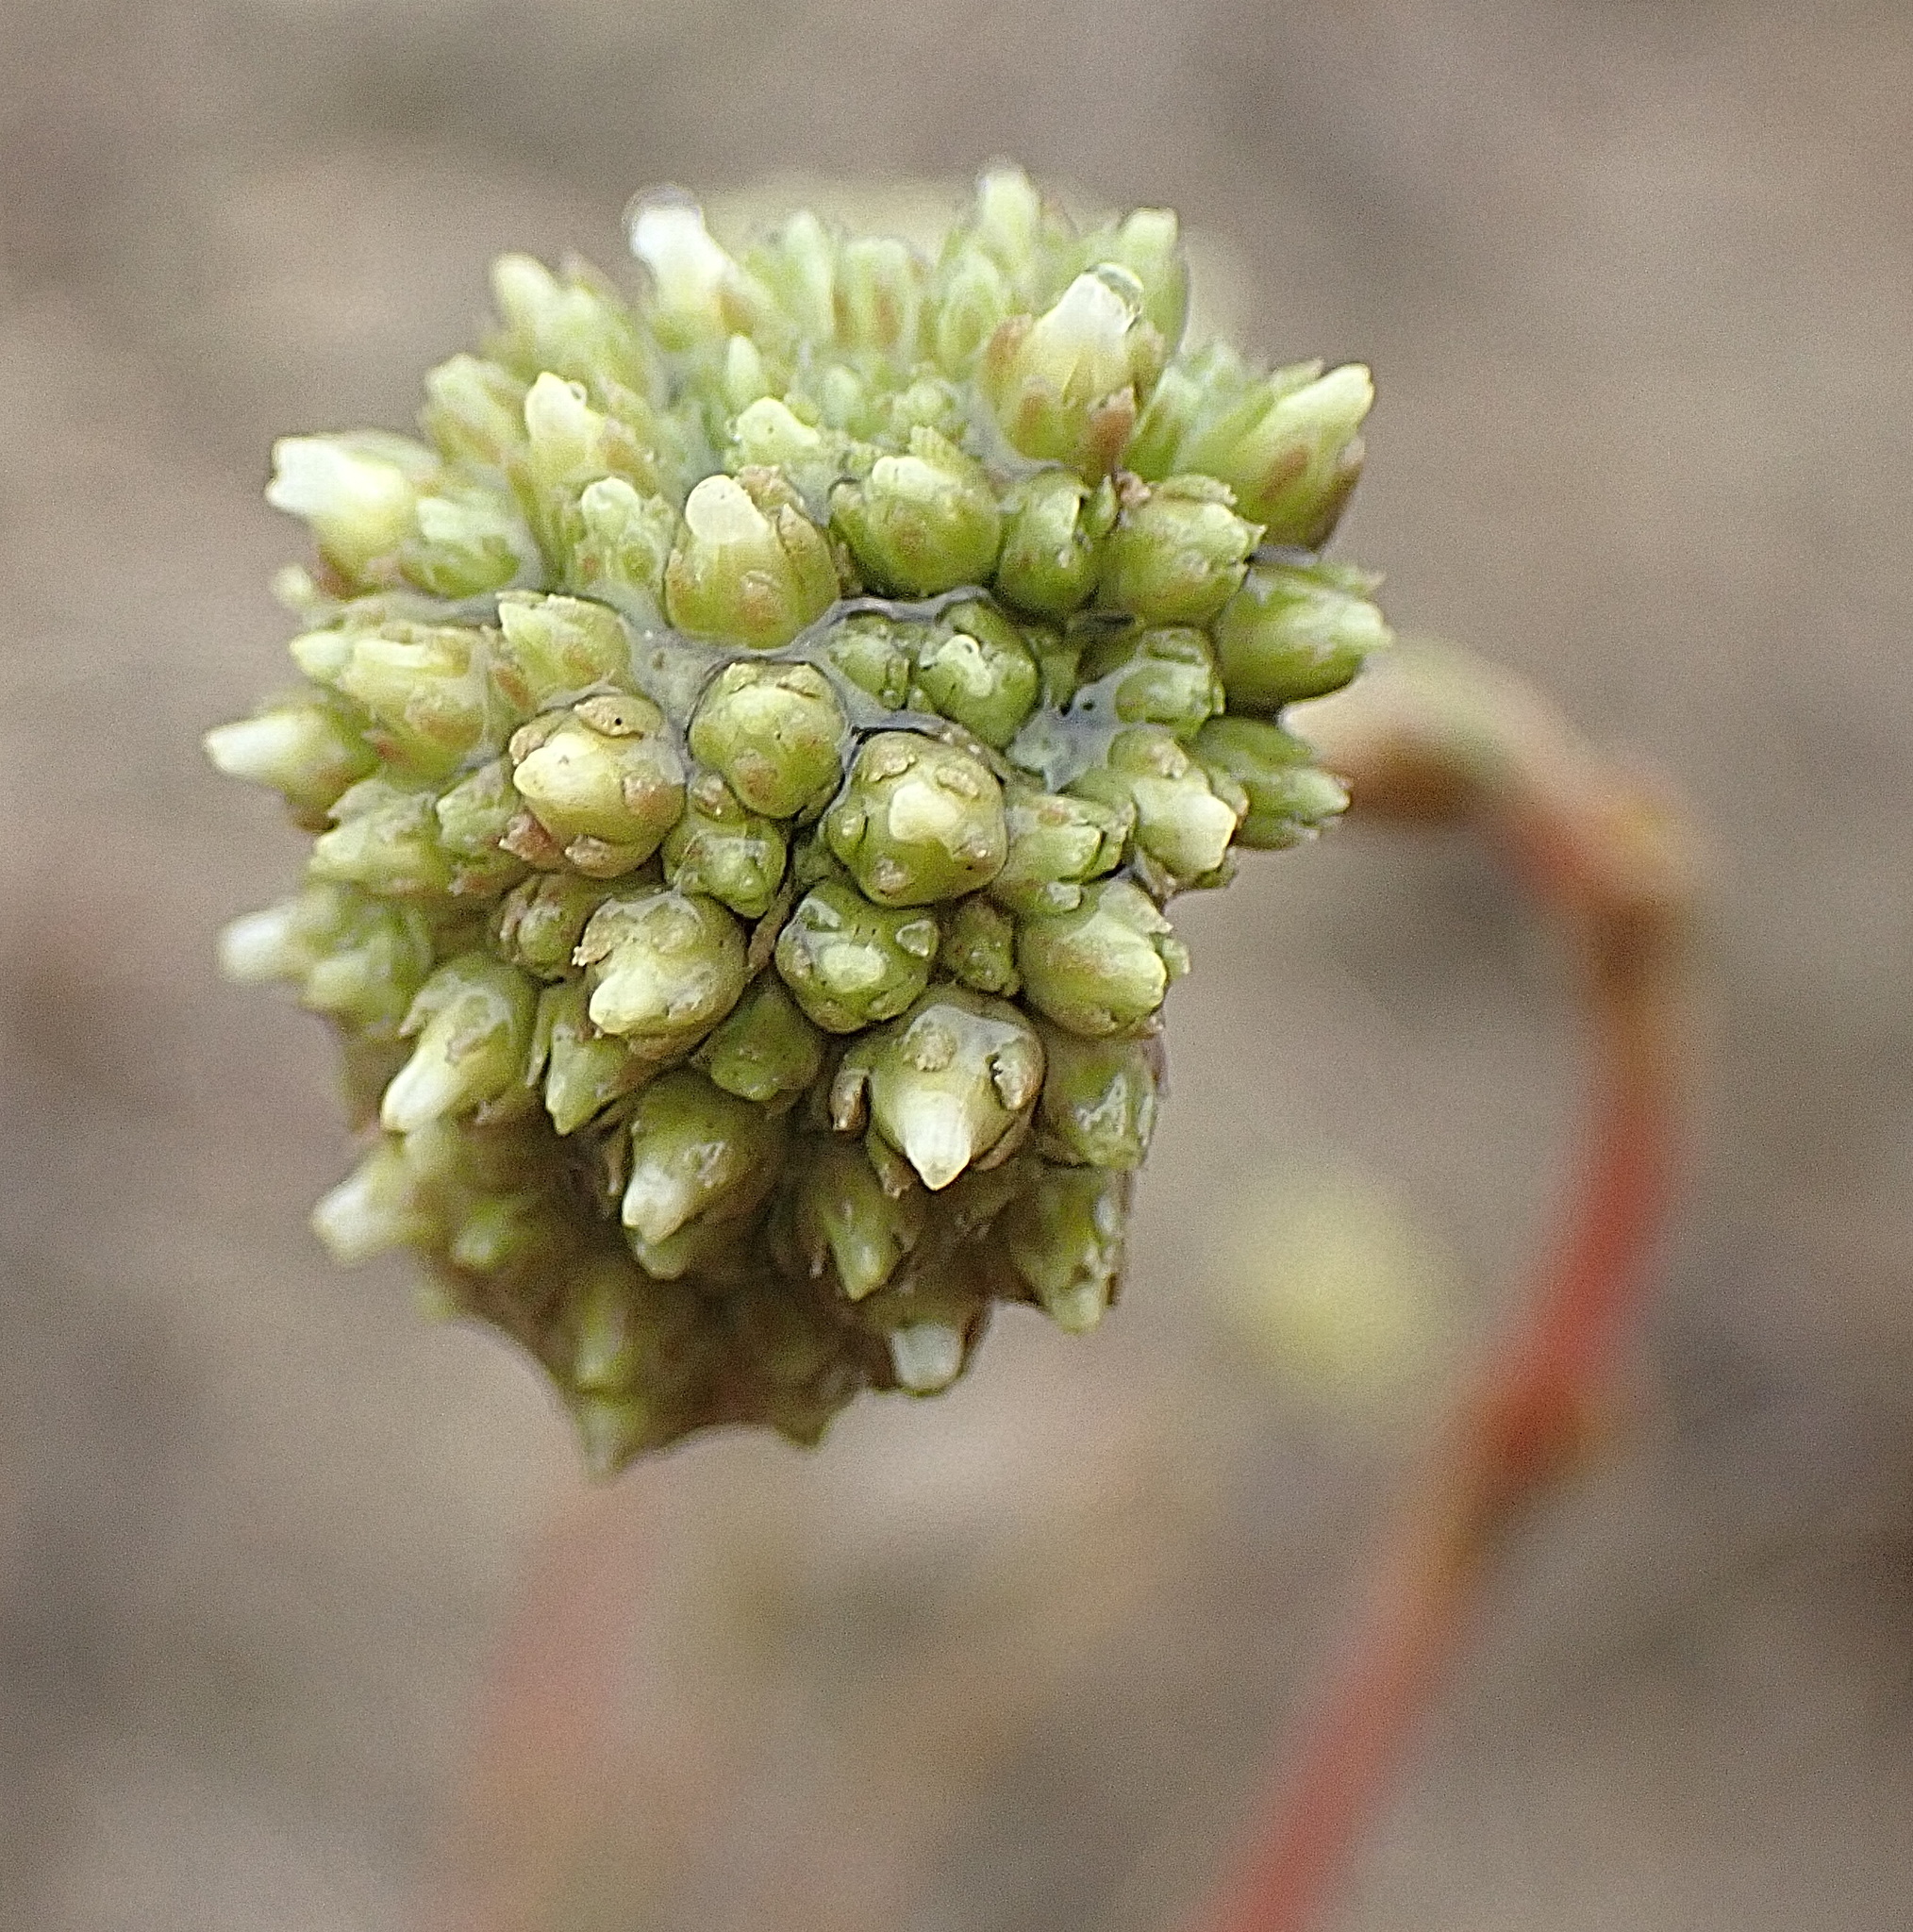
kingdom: Plantae
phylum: Tracheophyta
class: Magnoliopsida
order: Saxifragales
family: Crassulaceae
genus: Crassula
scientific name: Crassula ciliata
